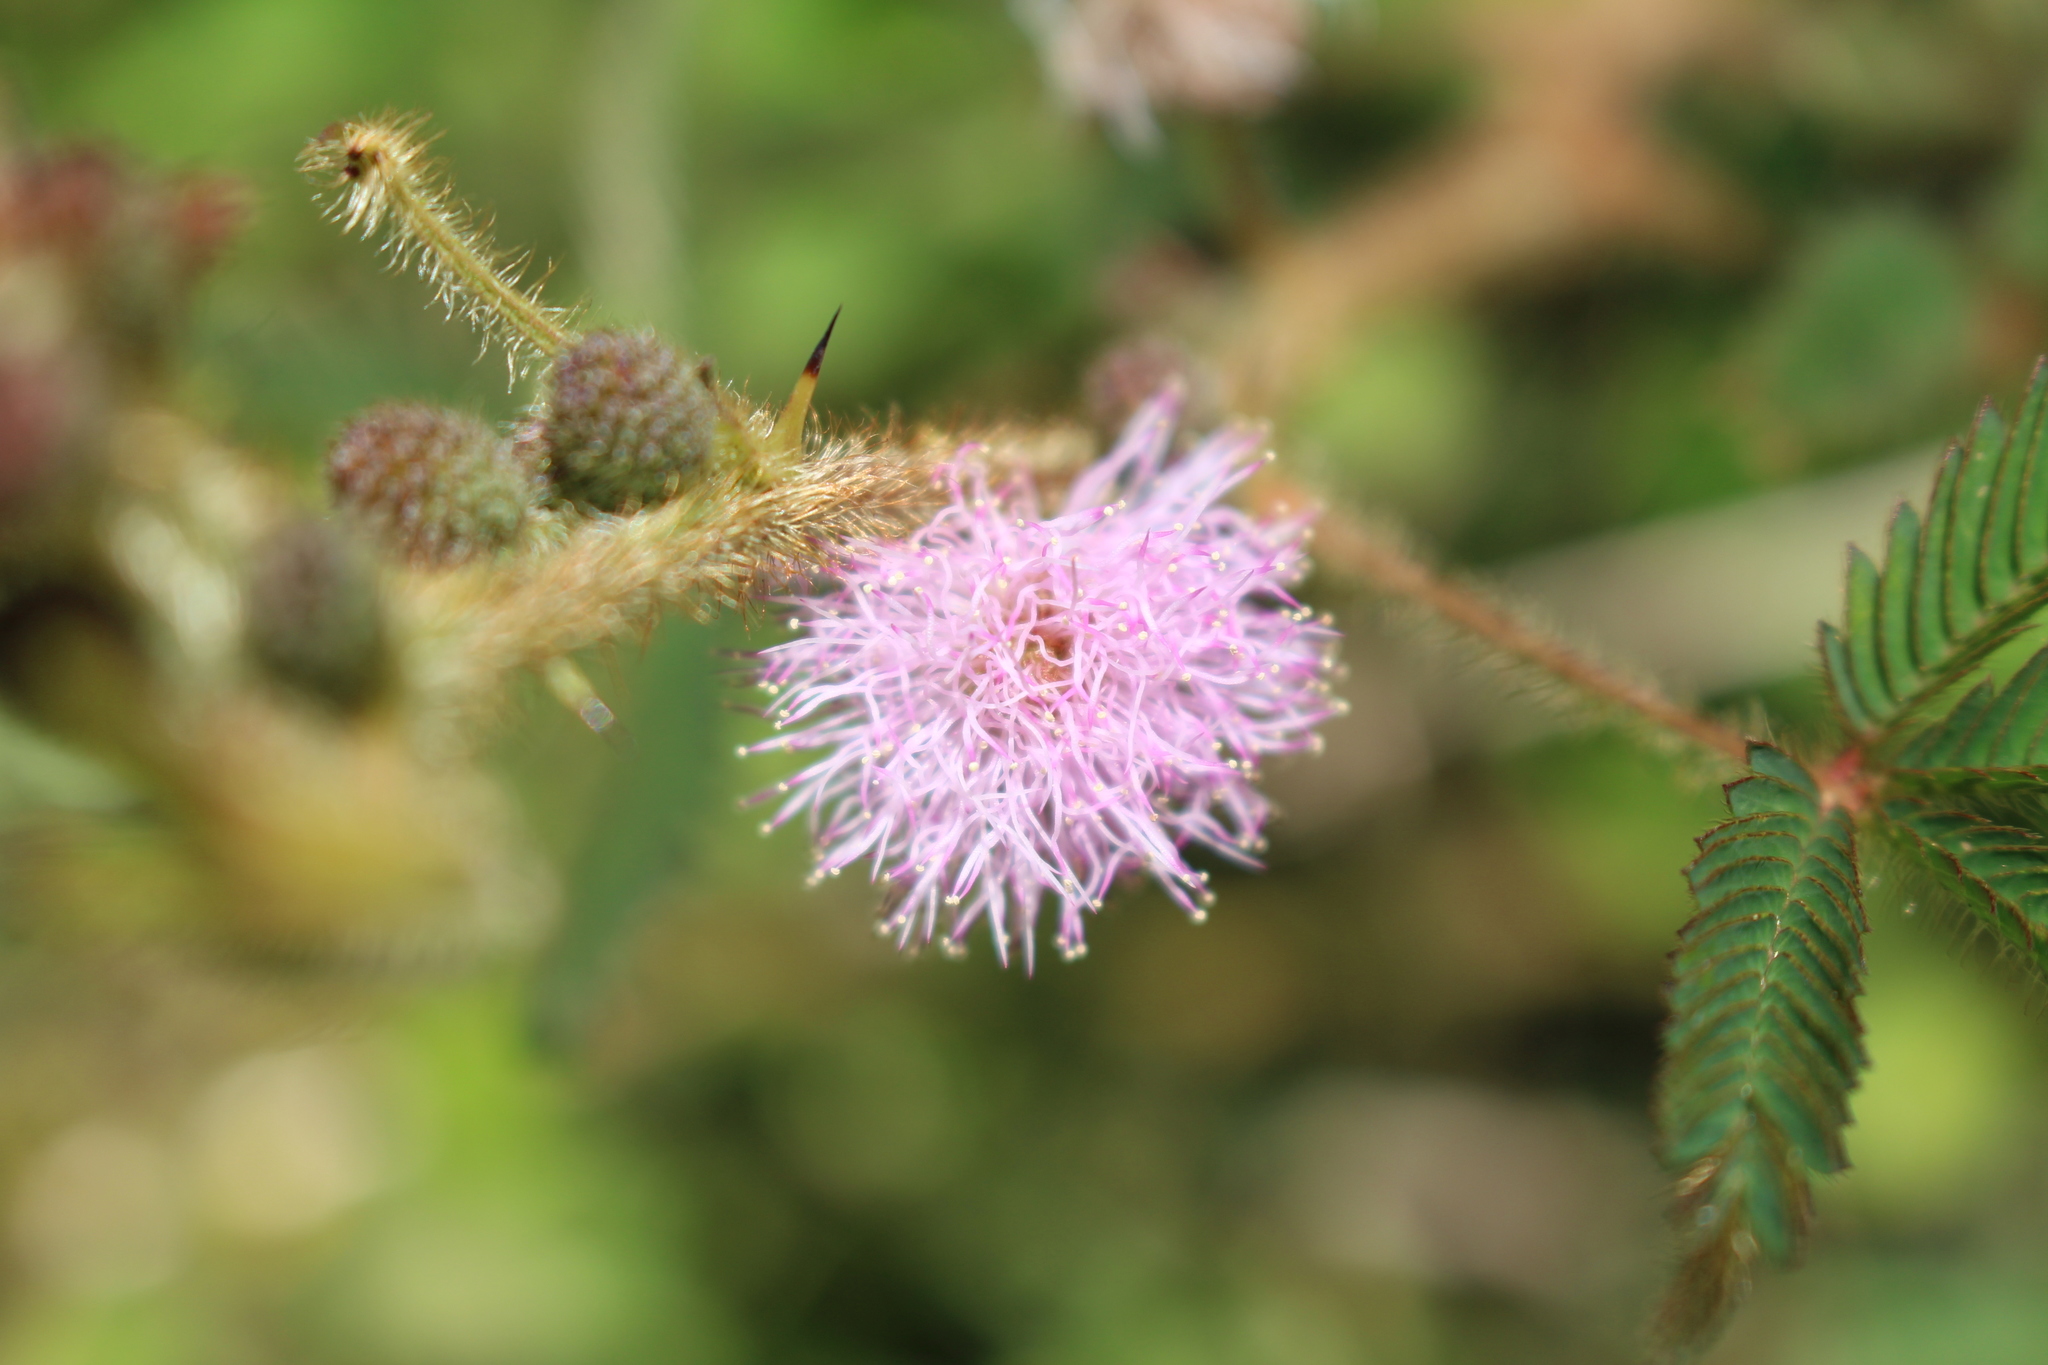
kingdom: Plantae
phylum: Tracheophyta
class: Magnoliopsida
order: Fabales
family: Fabaceae
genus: Mimosa
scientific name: Mimosa pudica
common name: Sensitive plant
